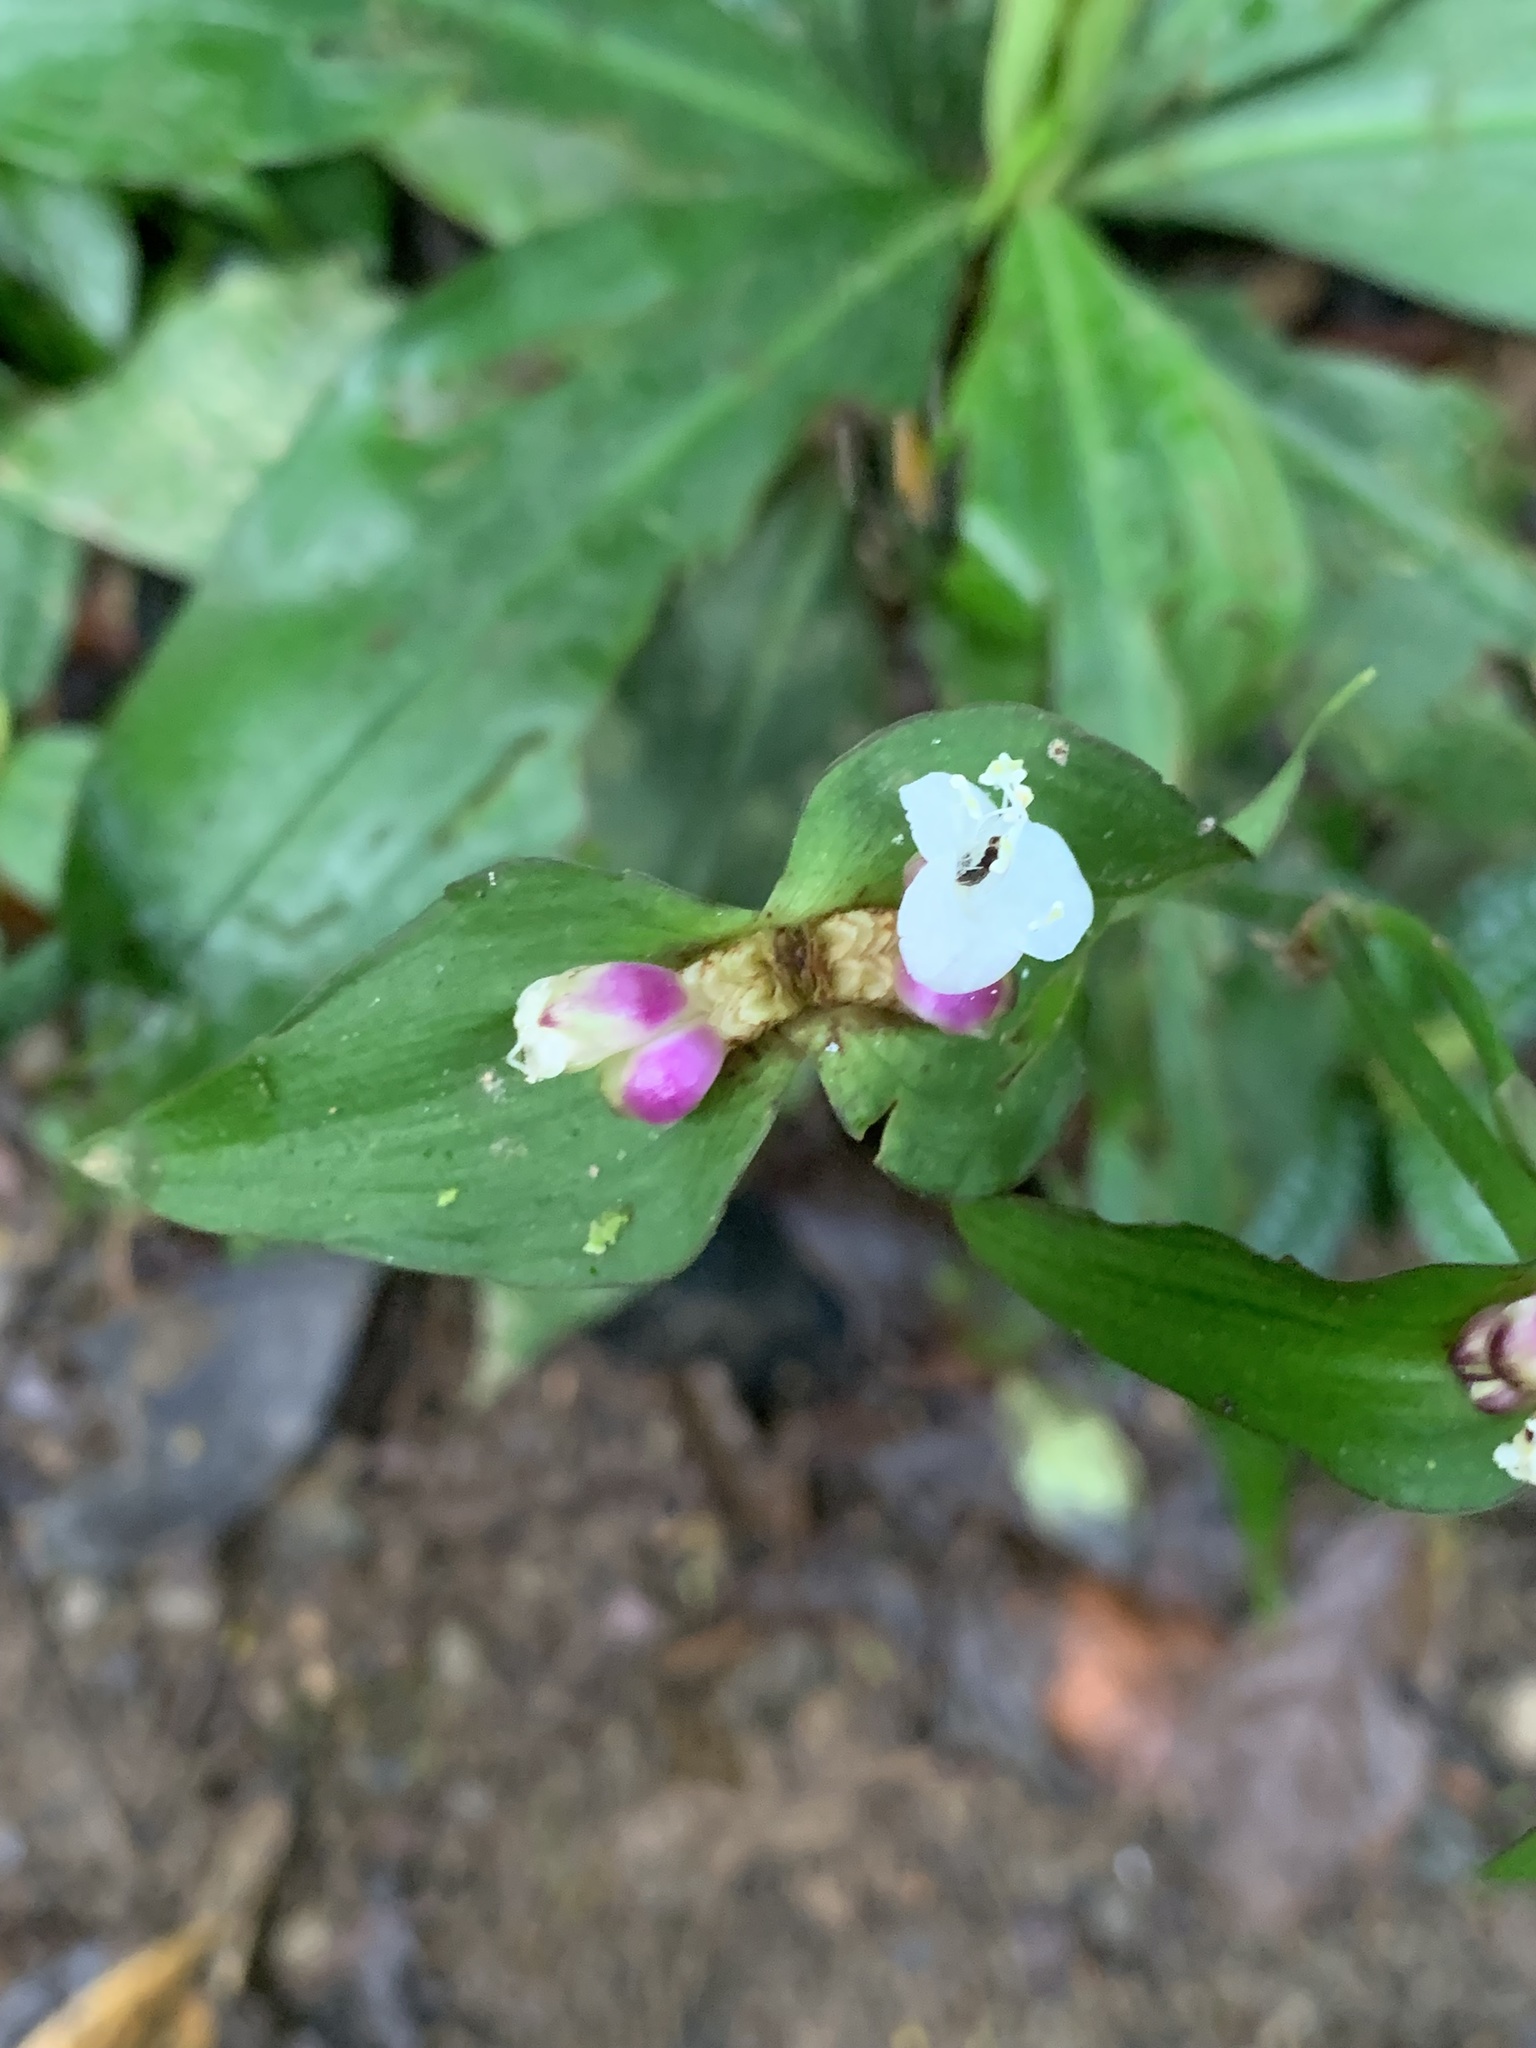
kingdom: Plantae
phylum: Tracheophyta
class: Liliopsida
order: Commelinales
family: Commelinaceae
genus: Tradescantia
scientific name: Tradescantia zanonia
